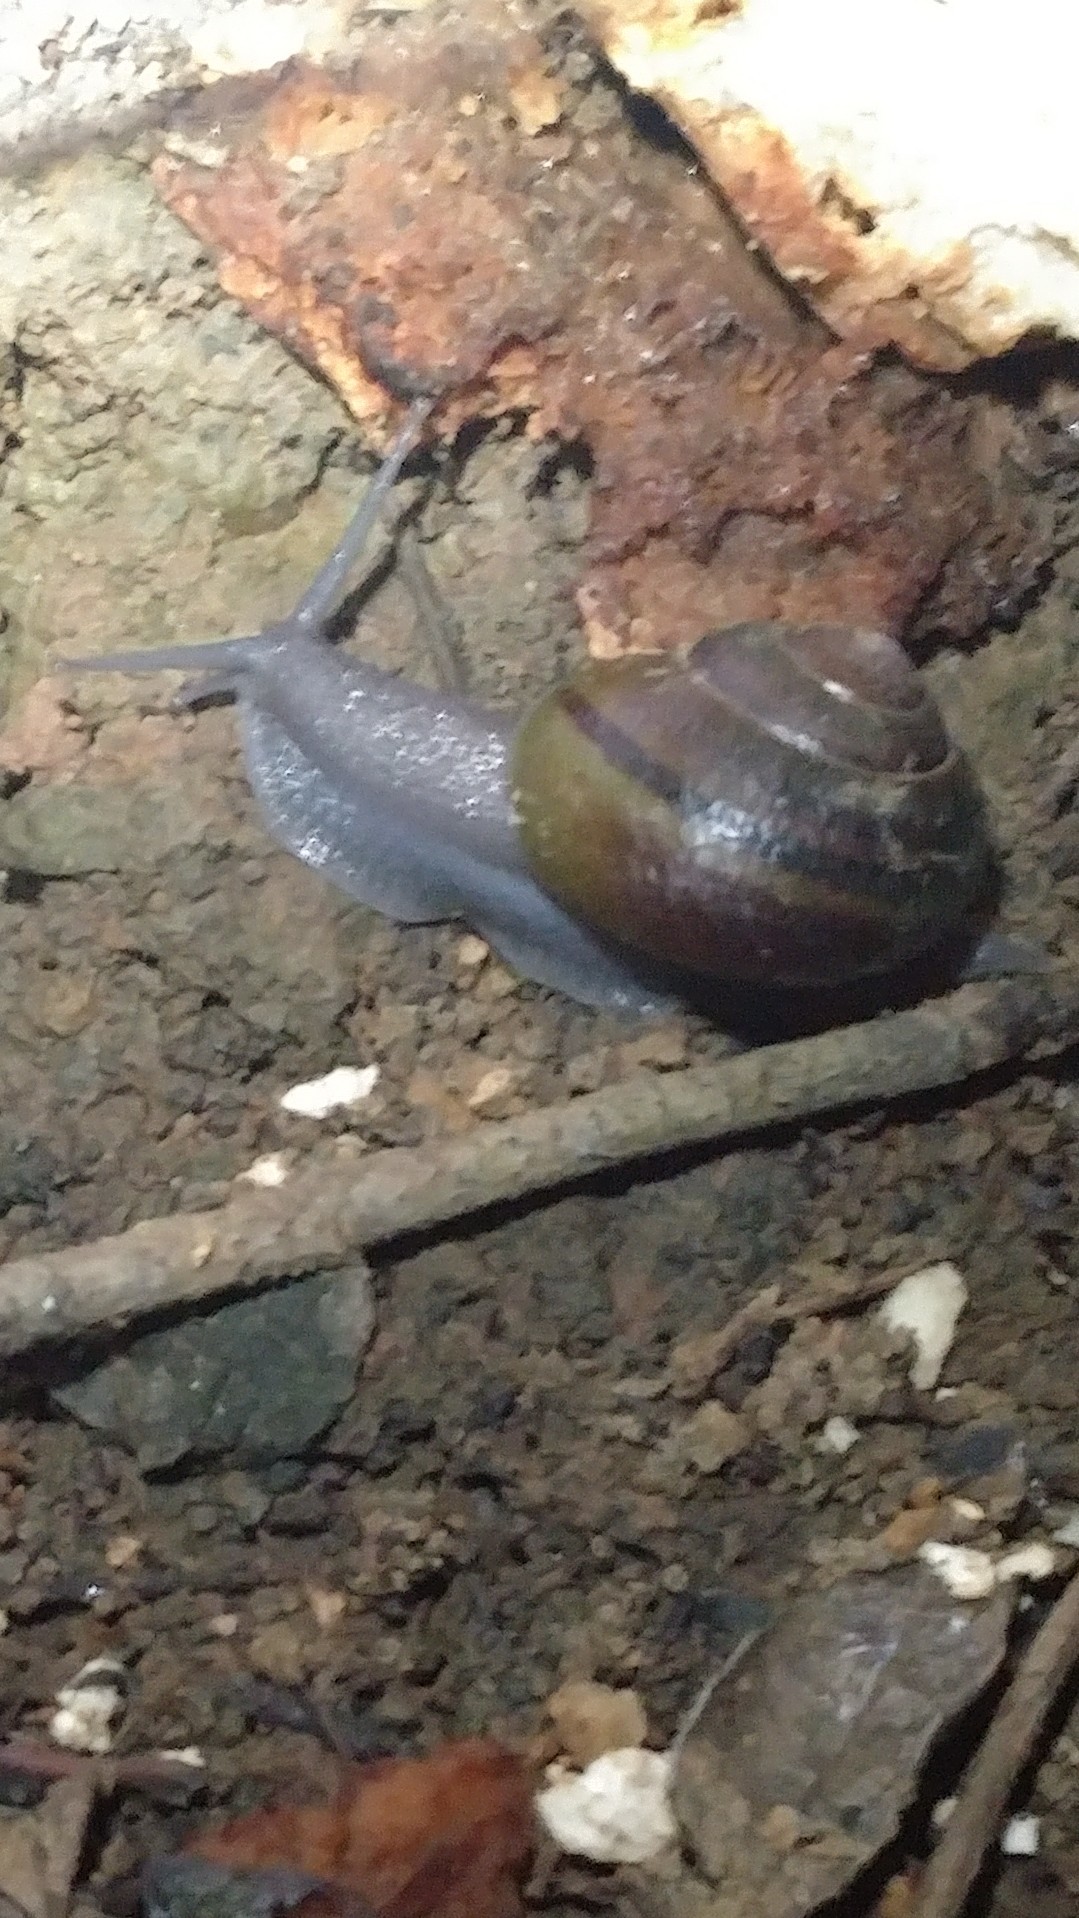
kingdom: Animalia
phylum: Mollusca
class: Gastropoda
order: Stylommatophora
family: Xanthonychidae
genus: Helminthoglypta
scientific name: Helminthoglypta tudiculata
